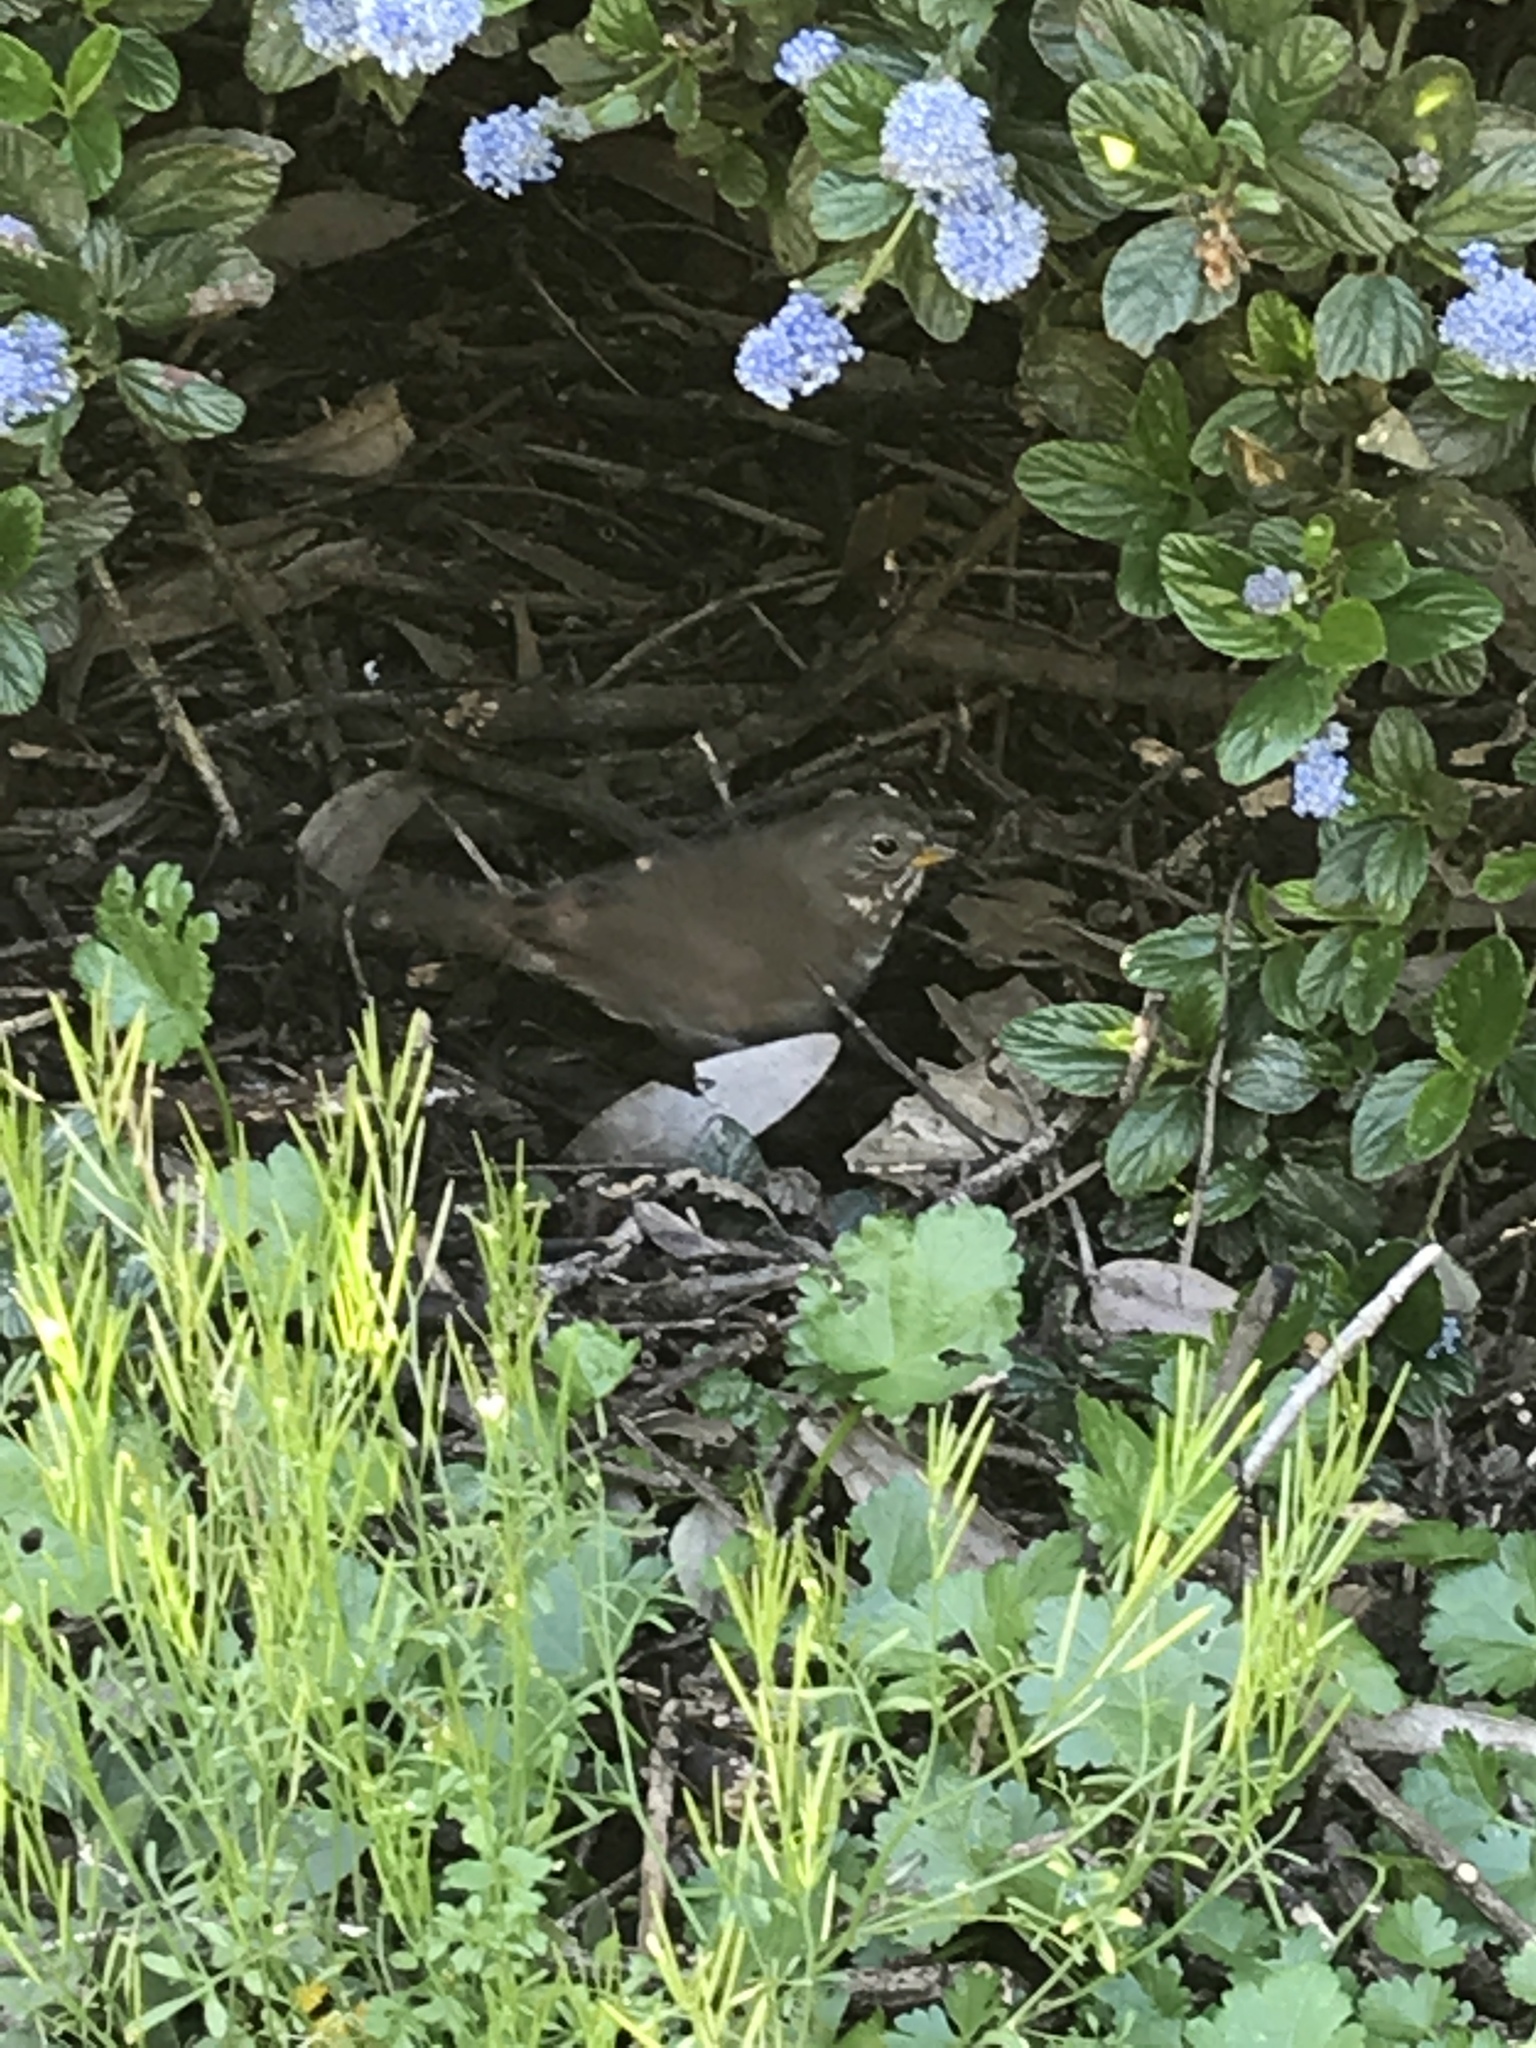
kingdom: Animalia
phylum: Chordata
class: Aves
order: Passeriformes
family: Passerellidae
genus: Passerella
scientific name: Passerella iliaca
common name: Fox sparrow
